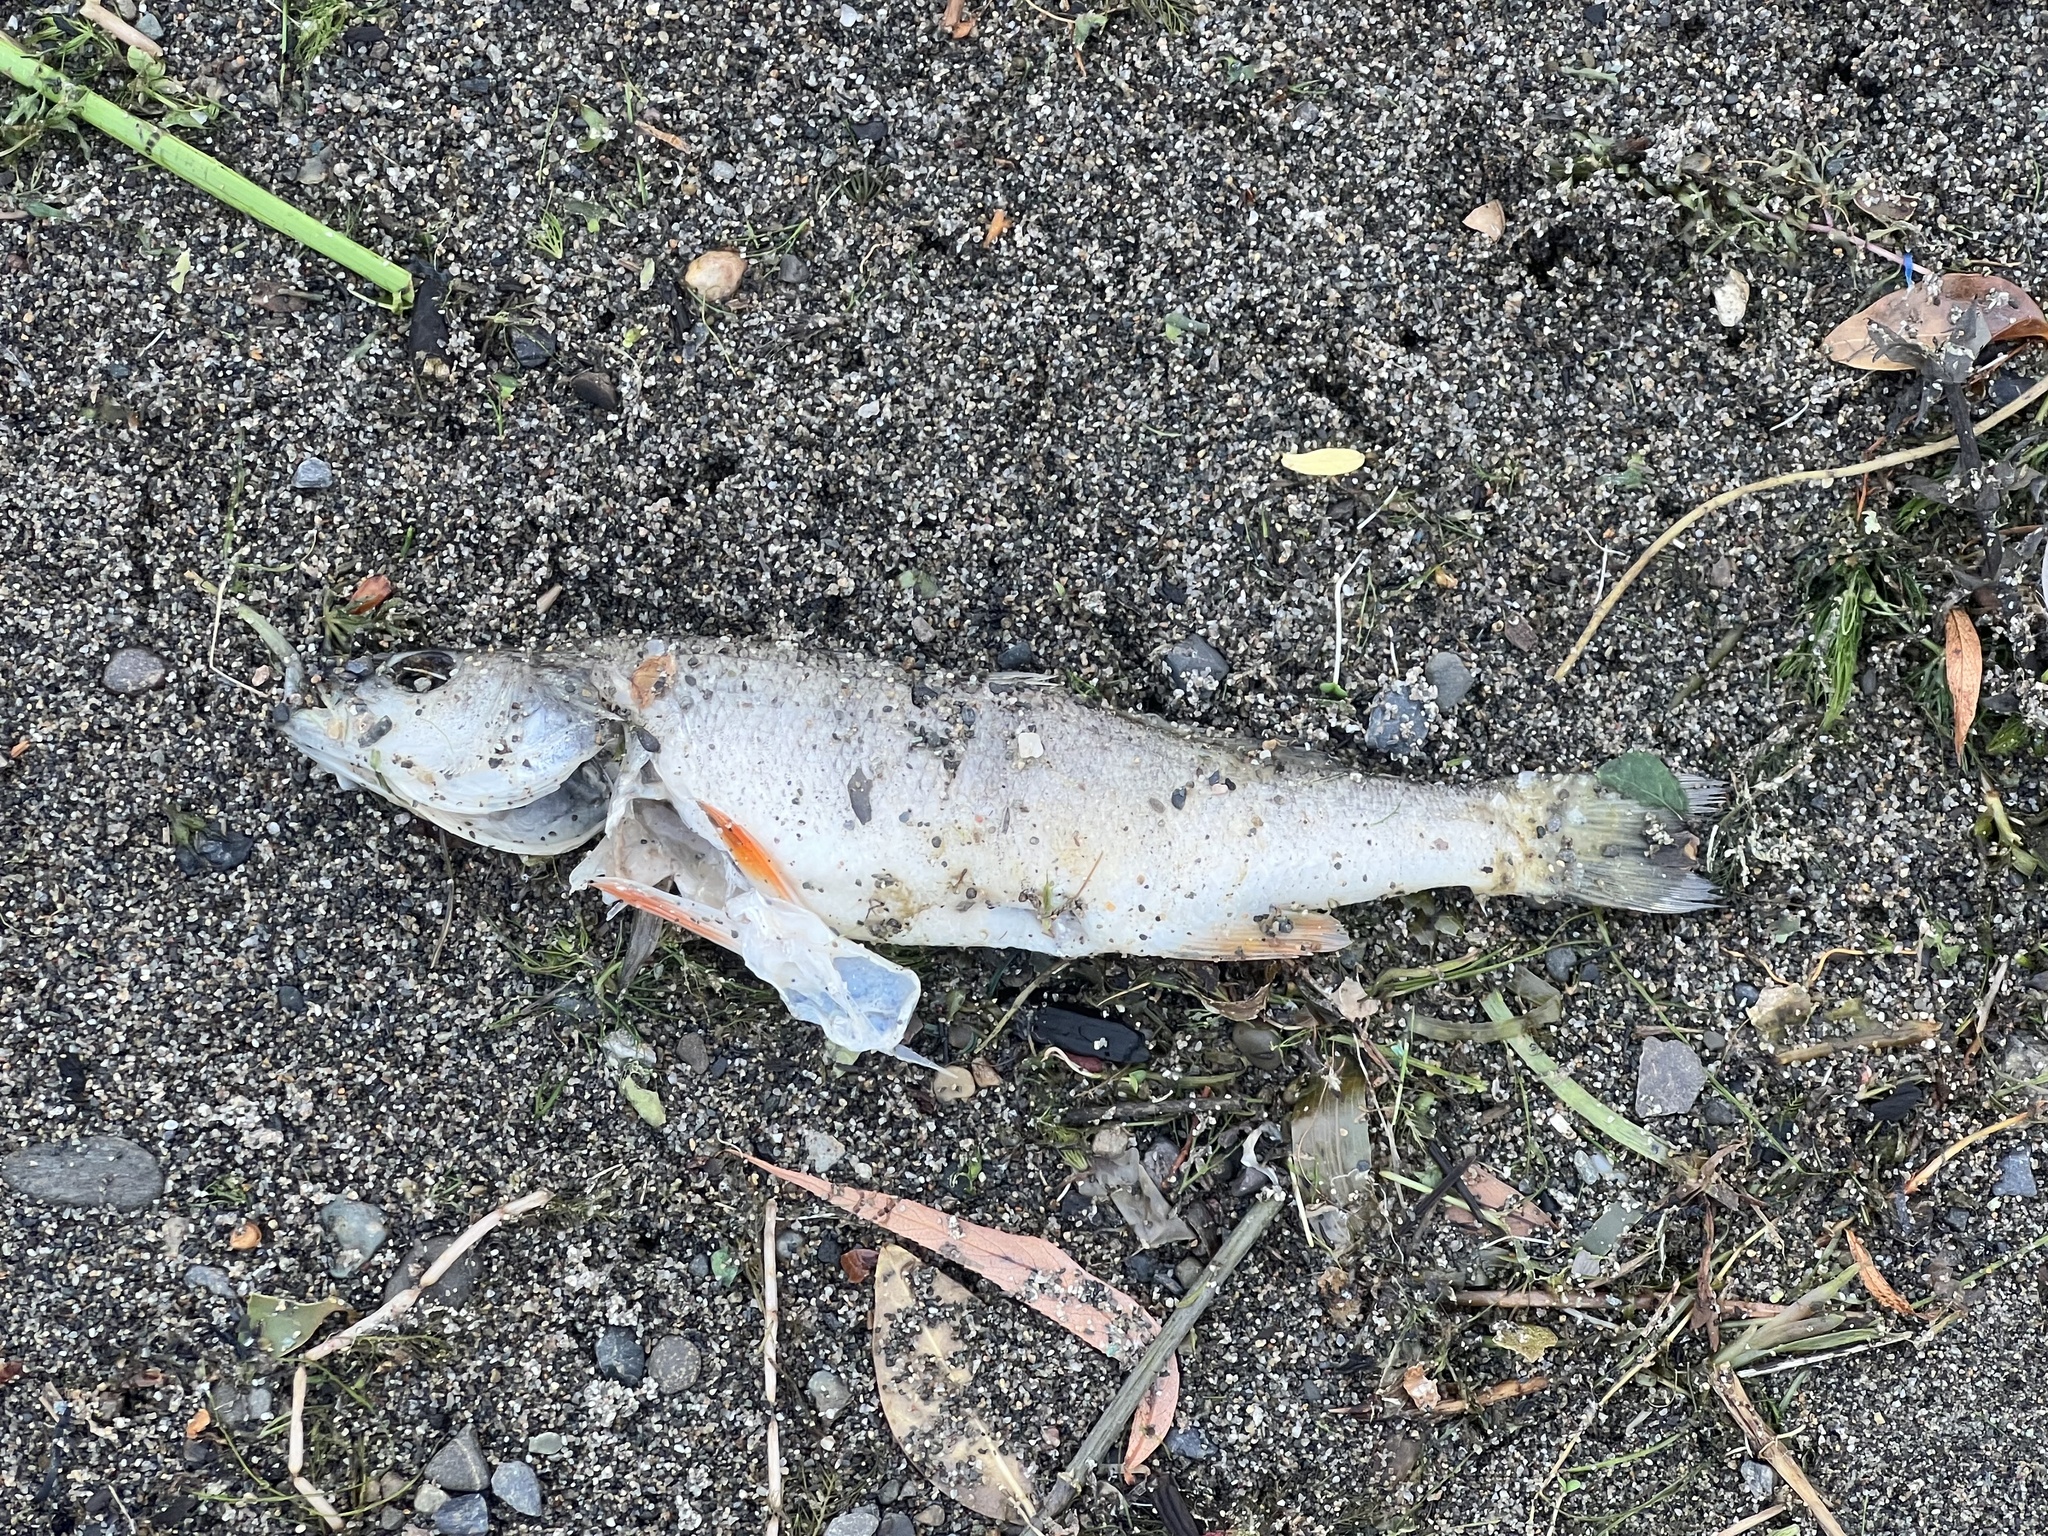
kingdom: Animalia
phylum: Chordata
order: Perciformes
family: Percidae
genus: Perca
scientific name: Perca flavescens
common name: Yellow perch
